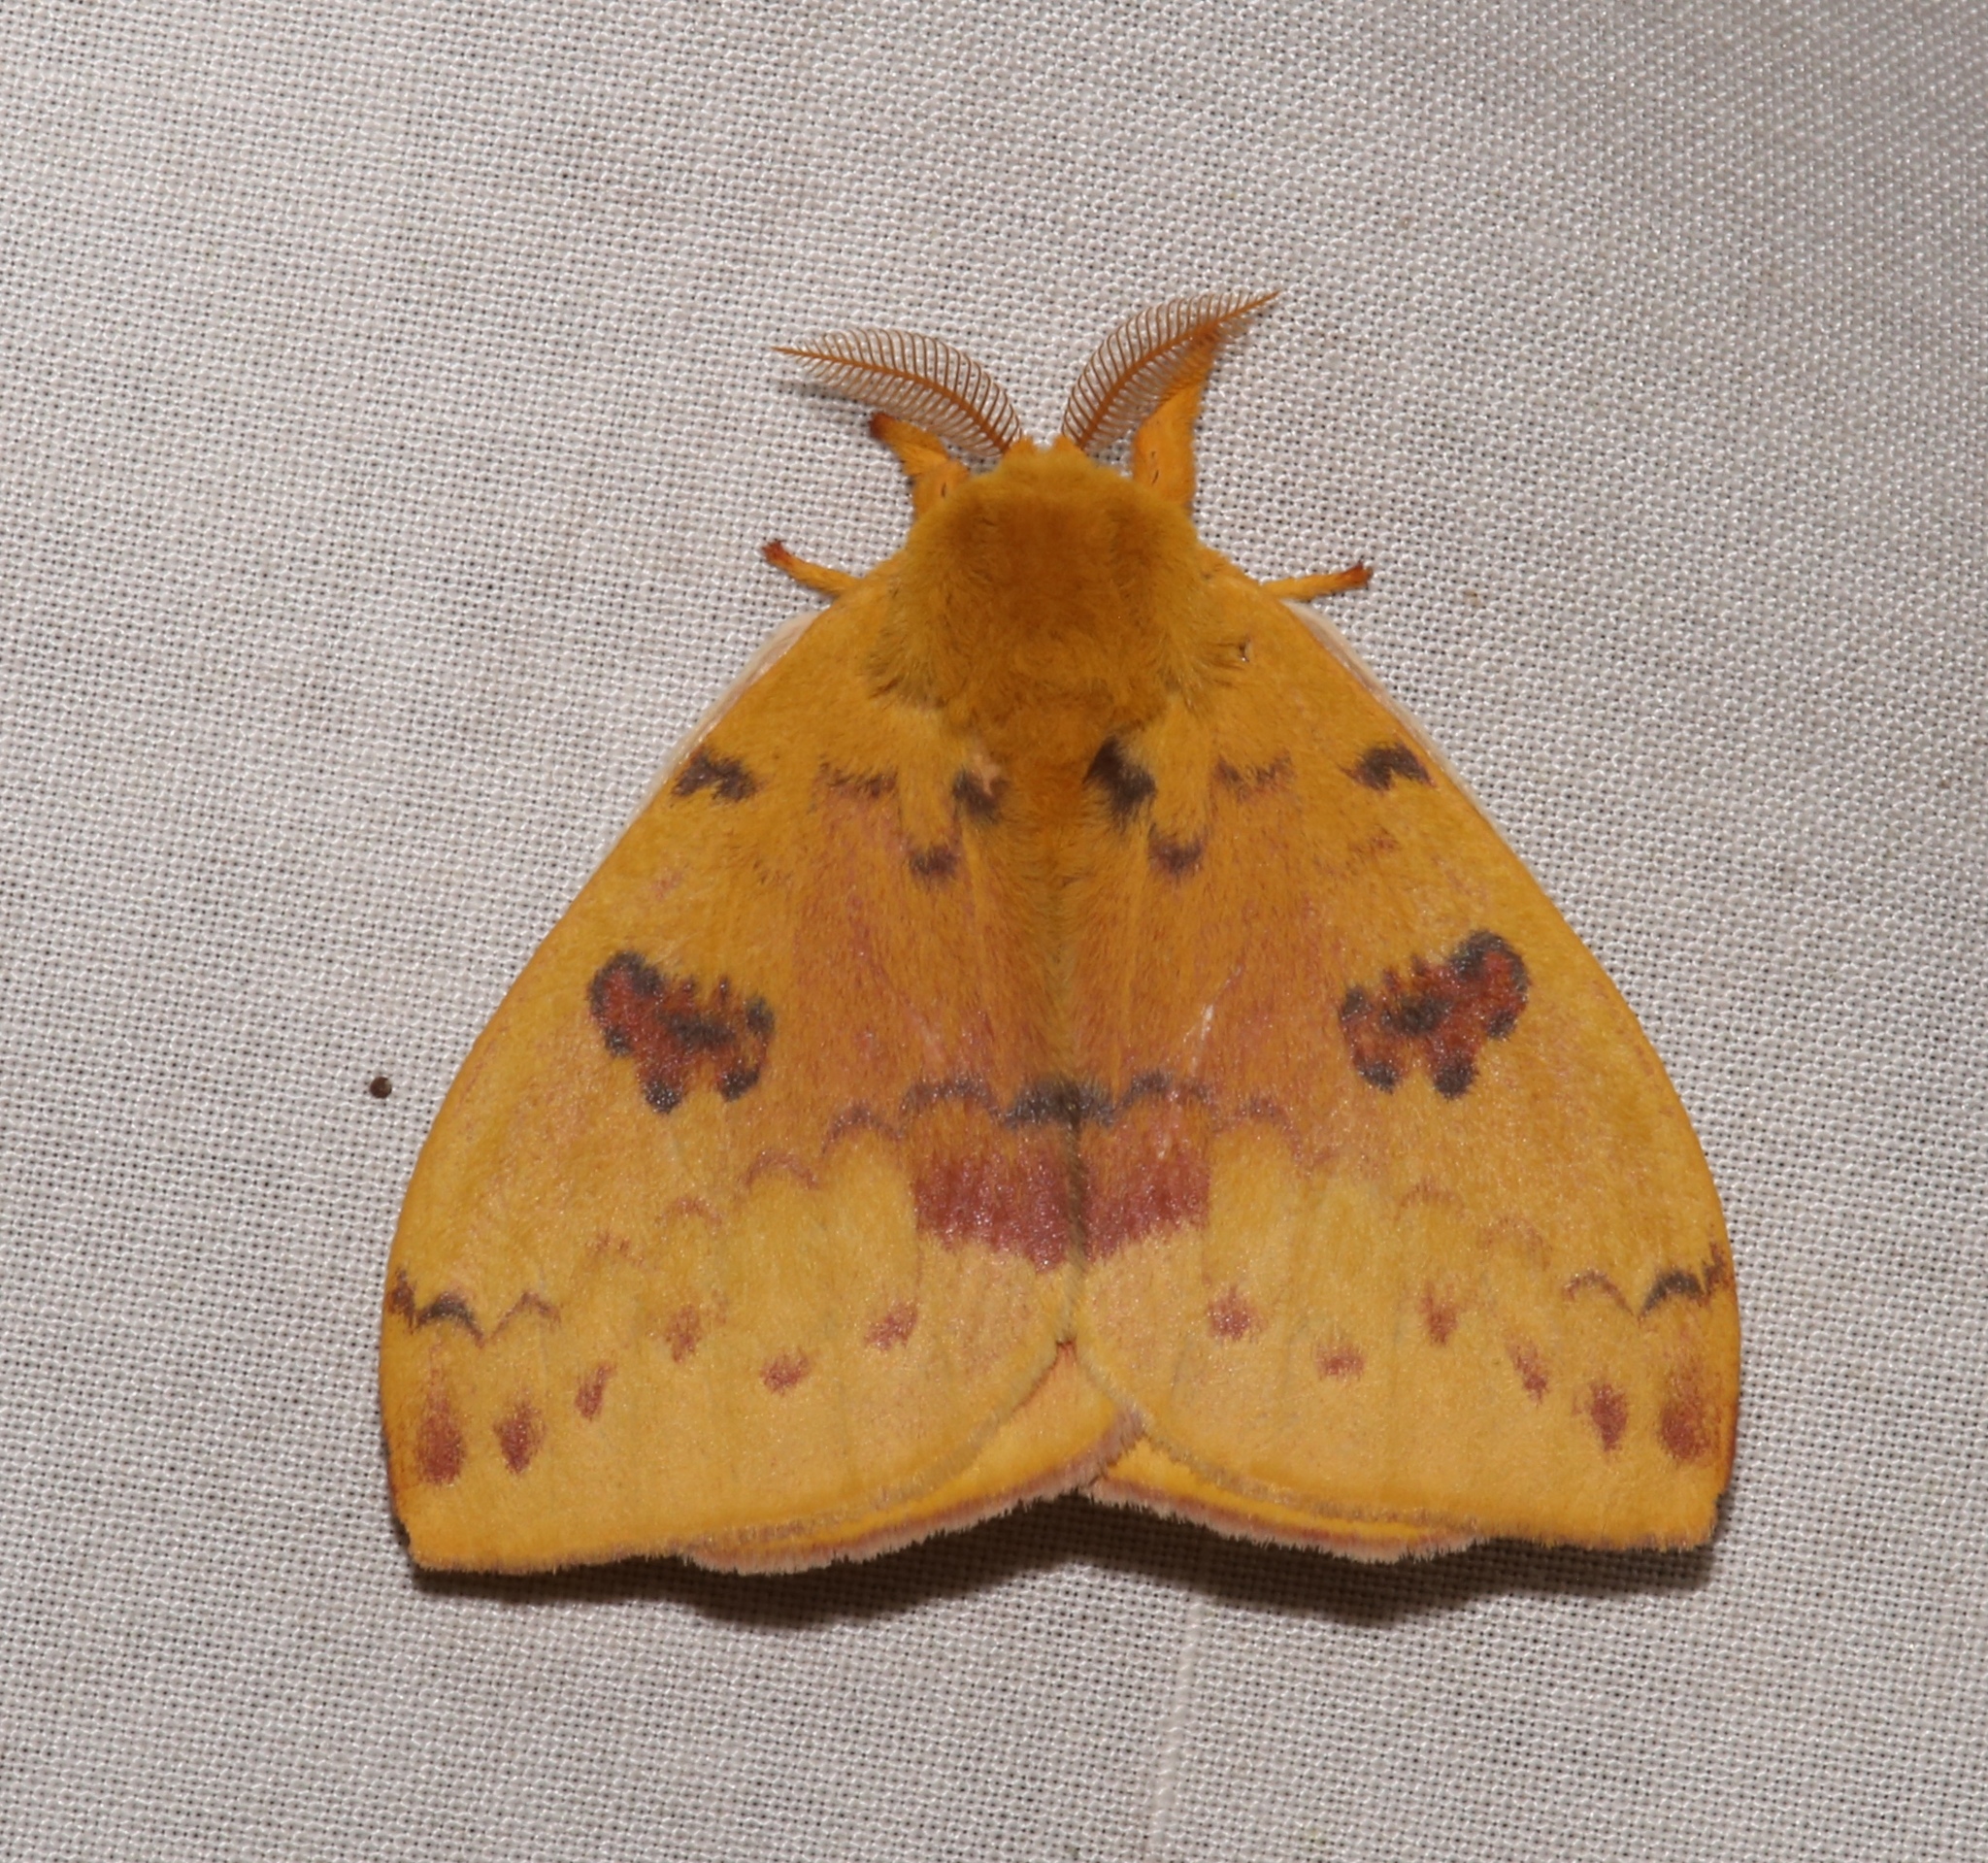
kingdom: Animalia
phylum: Arthropoda
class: Insecta
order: Lepidoptera
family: Saturniidae
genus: Automeris
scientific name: Automeris io
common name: Io moth
